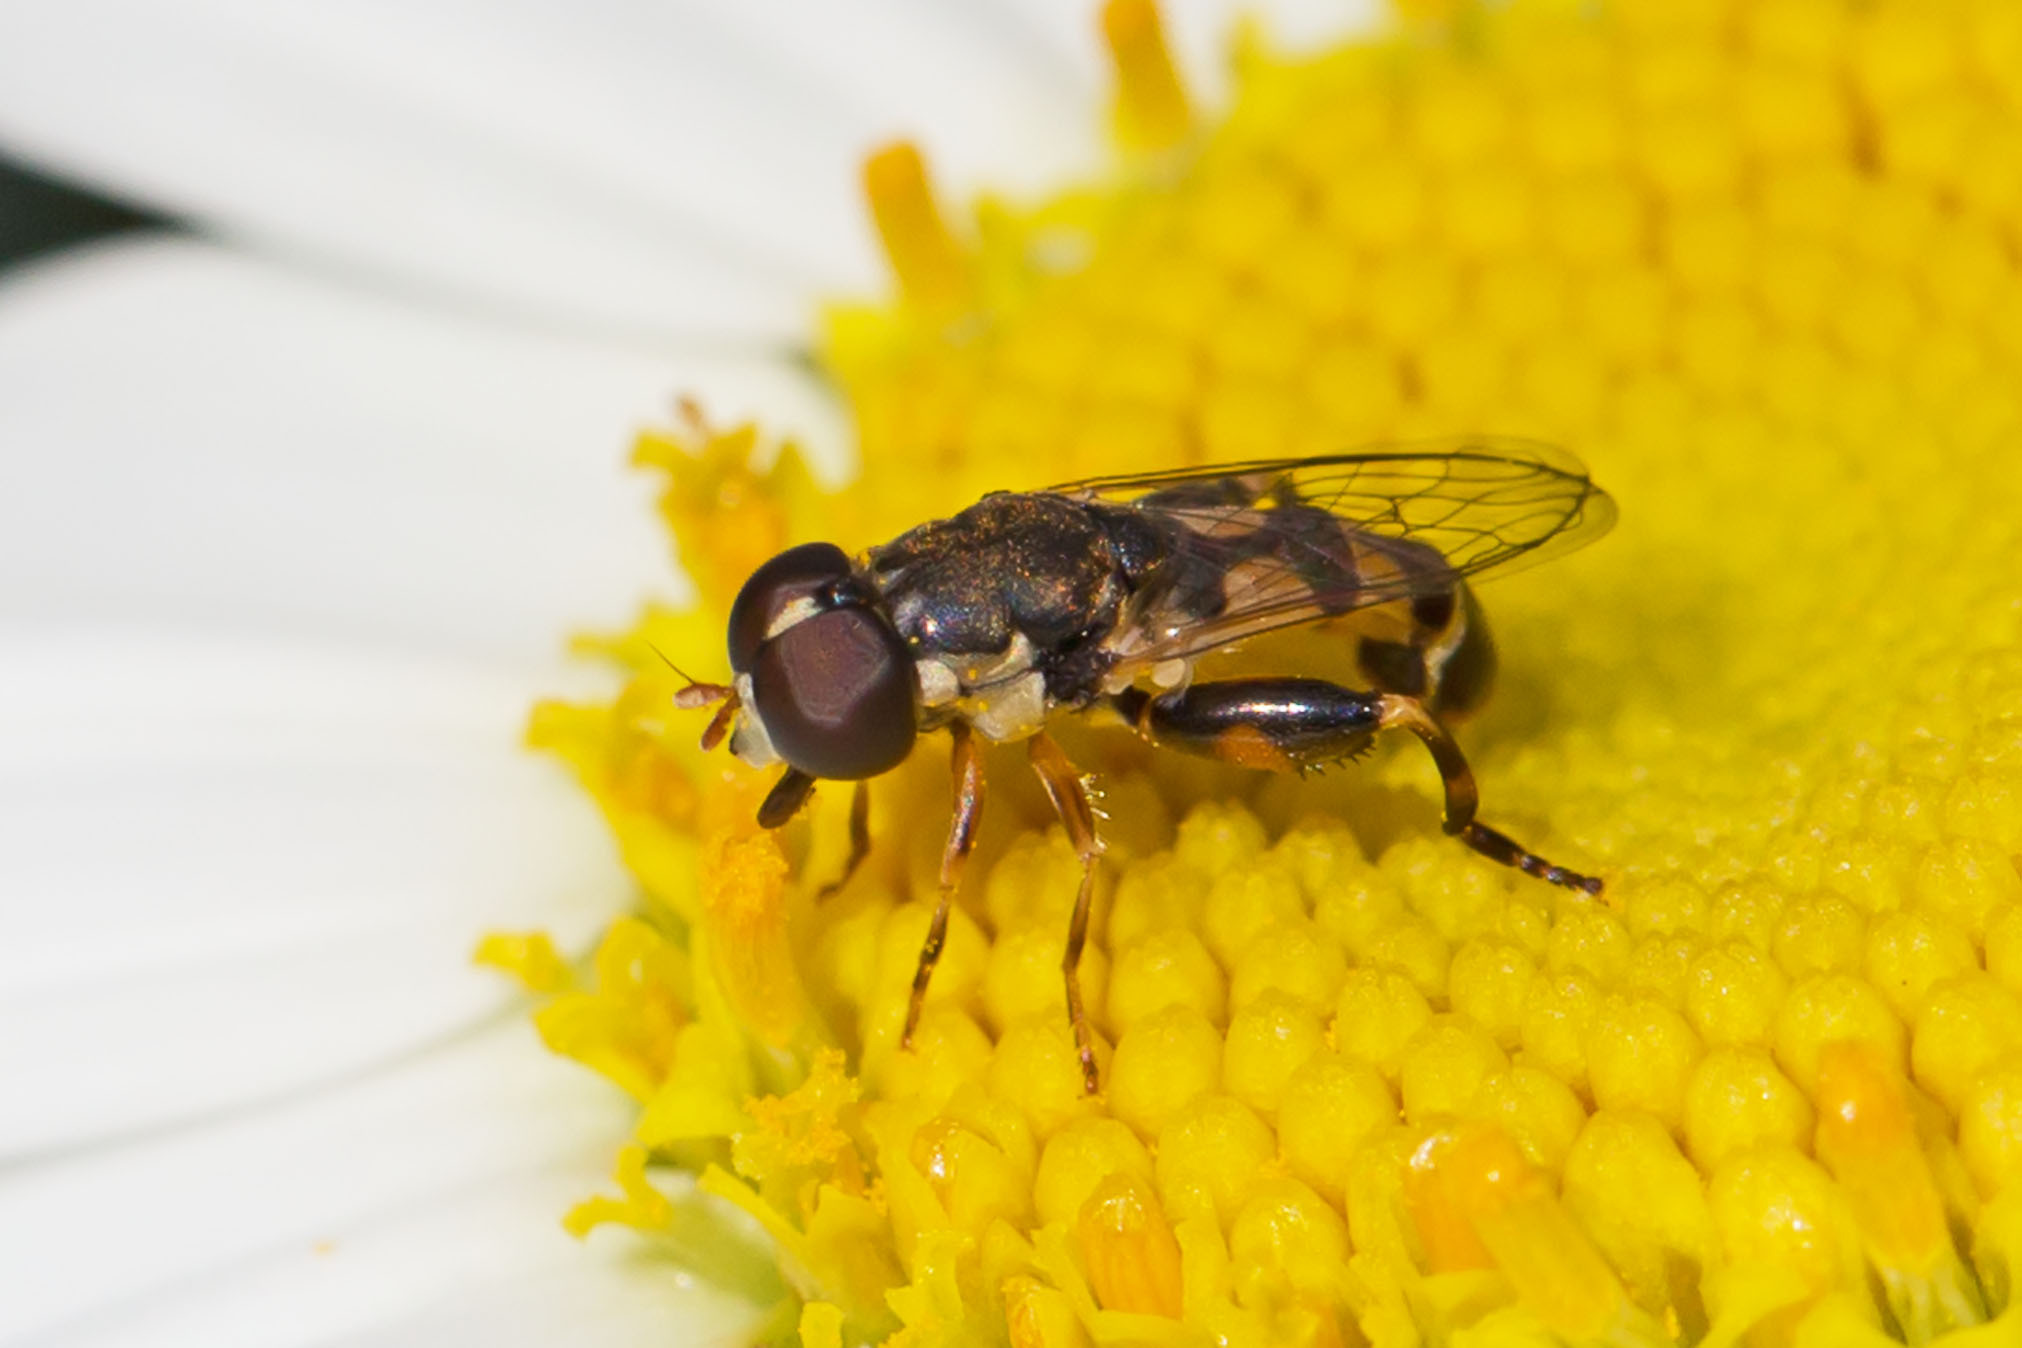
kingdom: Animalia
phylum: Arthropoda
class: Insecta
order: Diptera
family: Syrphidae
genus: Syritta
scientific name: Syritta pipiens
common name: Hover fly
